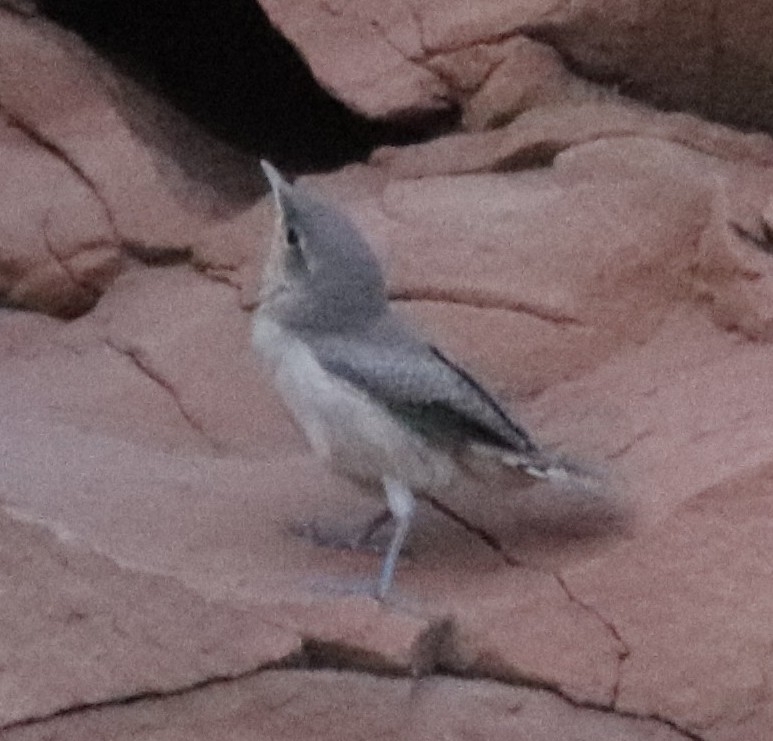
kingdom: Animalia
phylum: Chordata
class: Aves
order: Passeriformes
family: Troglodytidae
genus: Salpinctes
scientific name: Salpinctes obsoletus
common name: Rock wren
